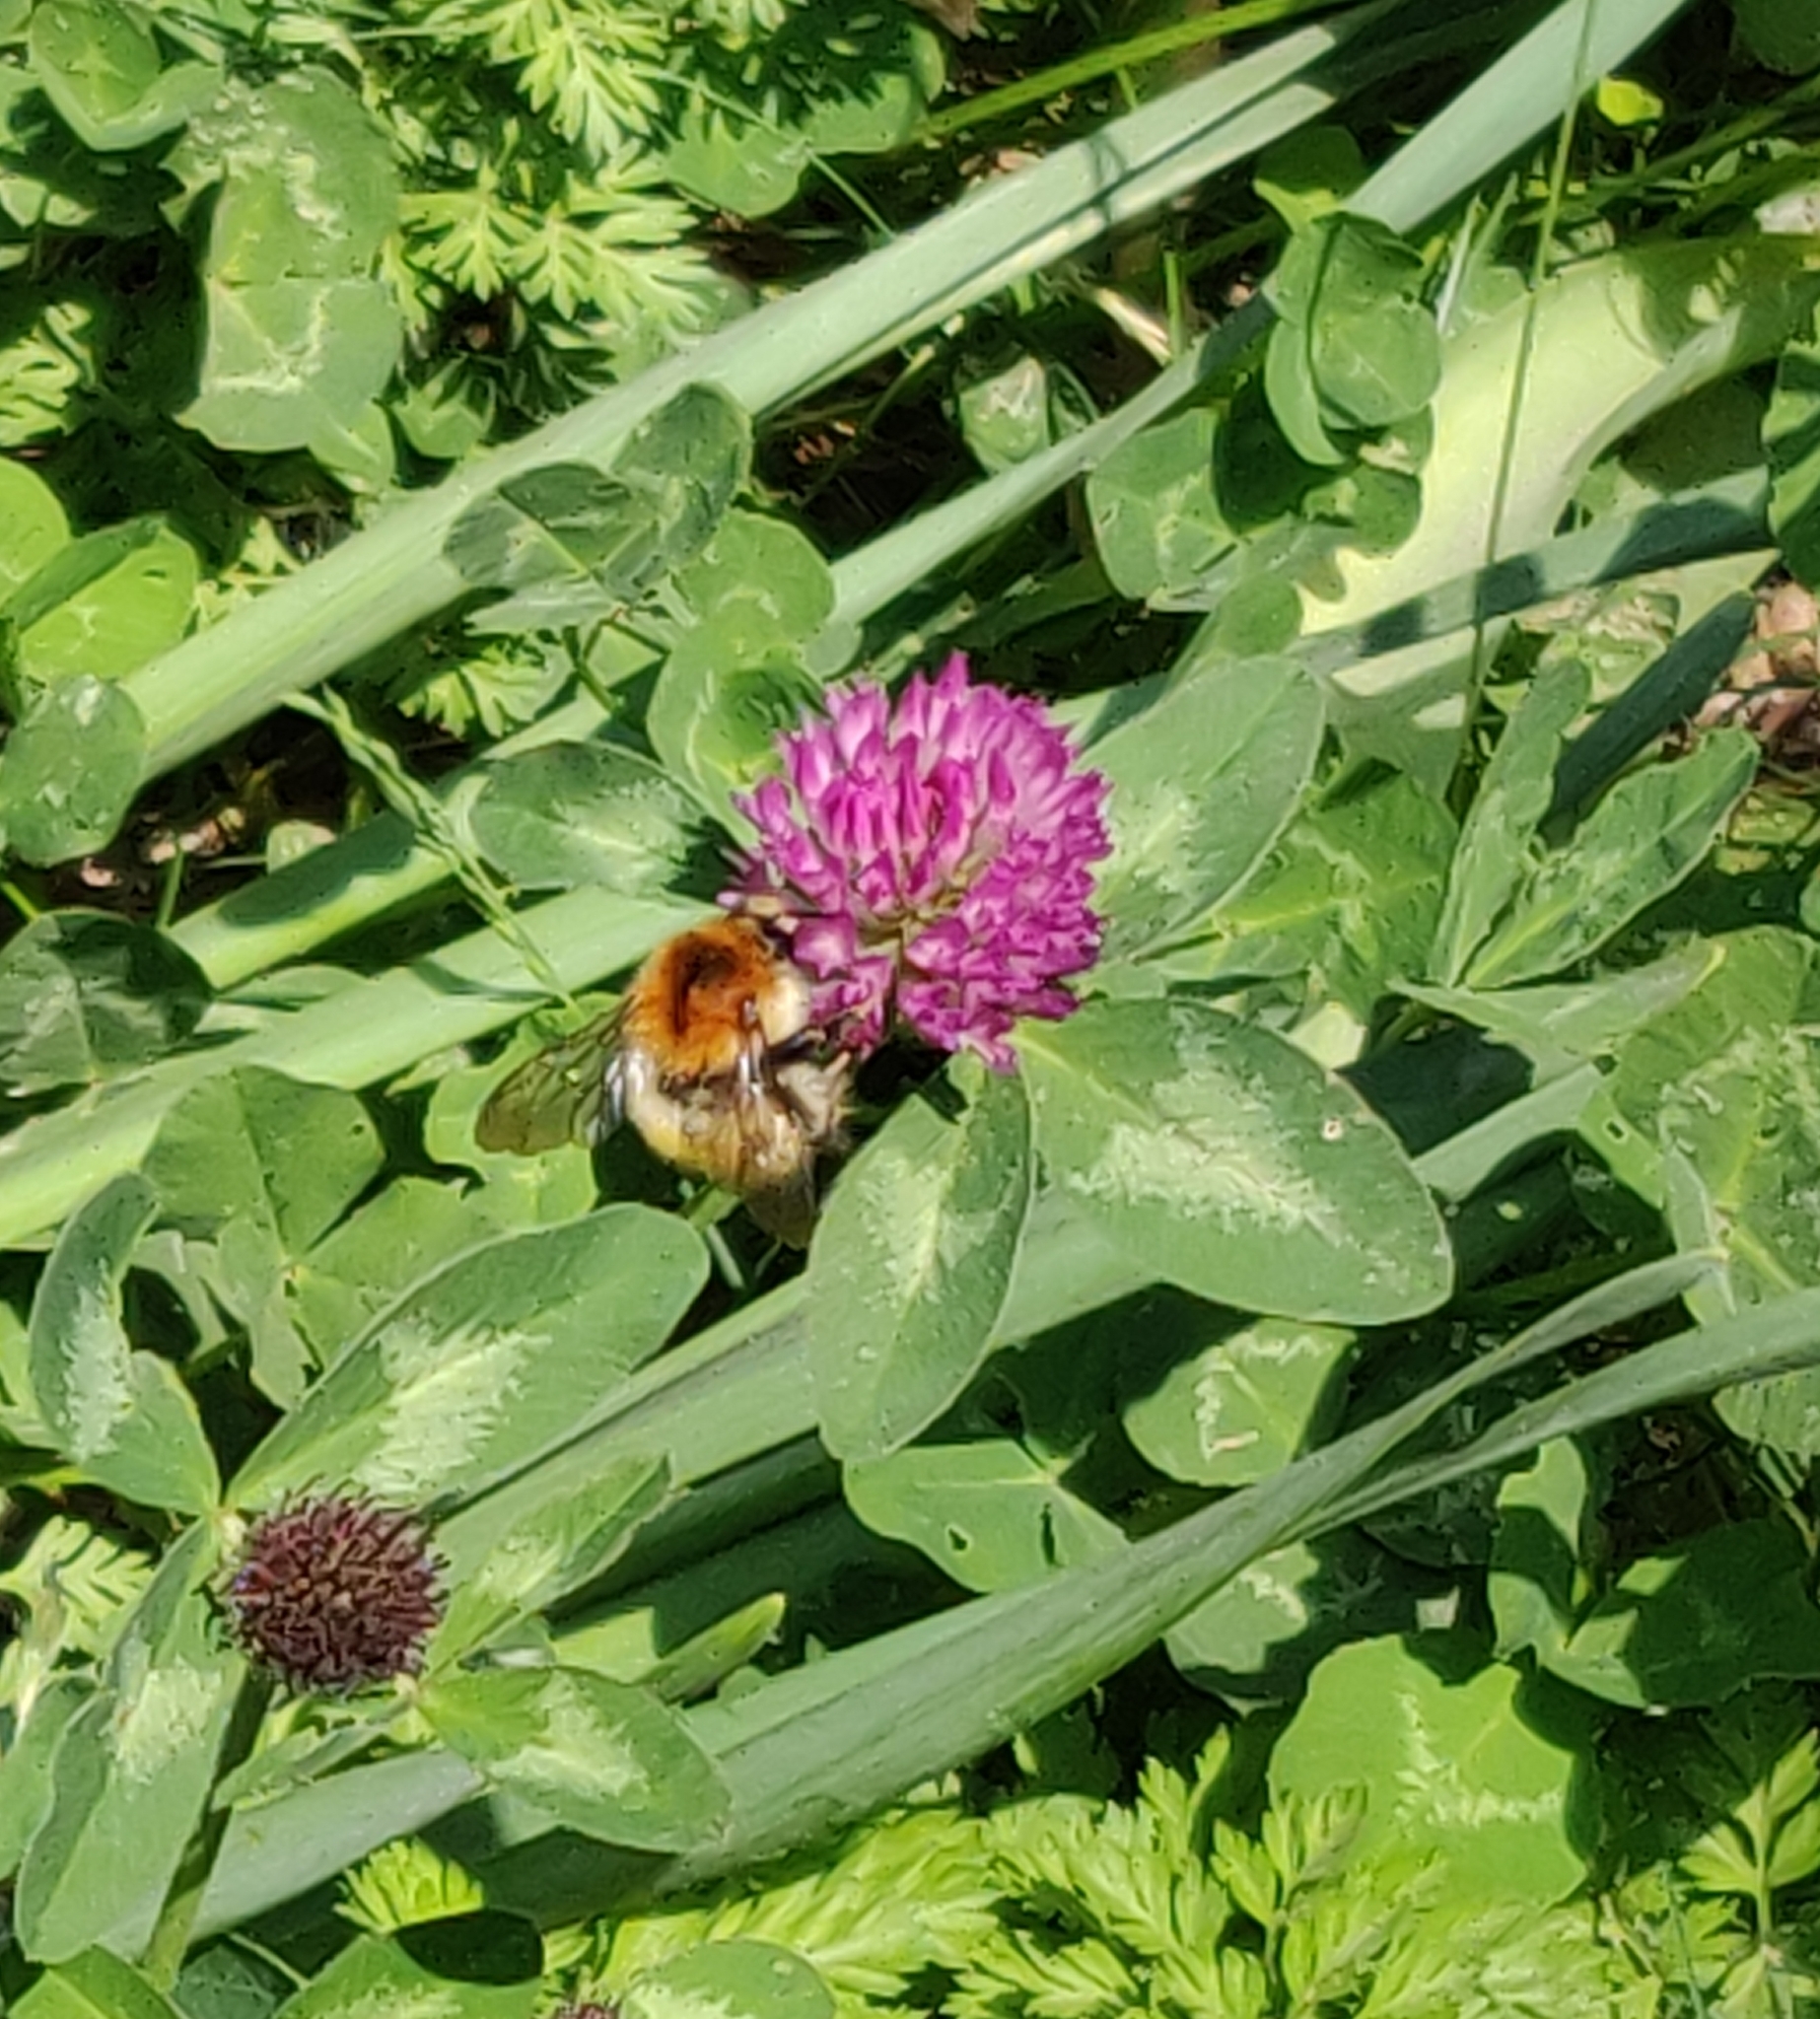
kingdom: Animalia
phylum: Arthropoda
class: Insecta
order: Hymenoptera
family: Apidae
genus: Bombus
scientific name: Bombus pascuorum
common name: Common carder bee
